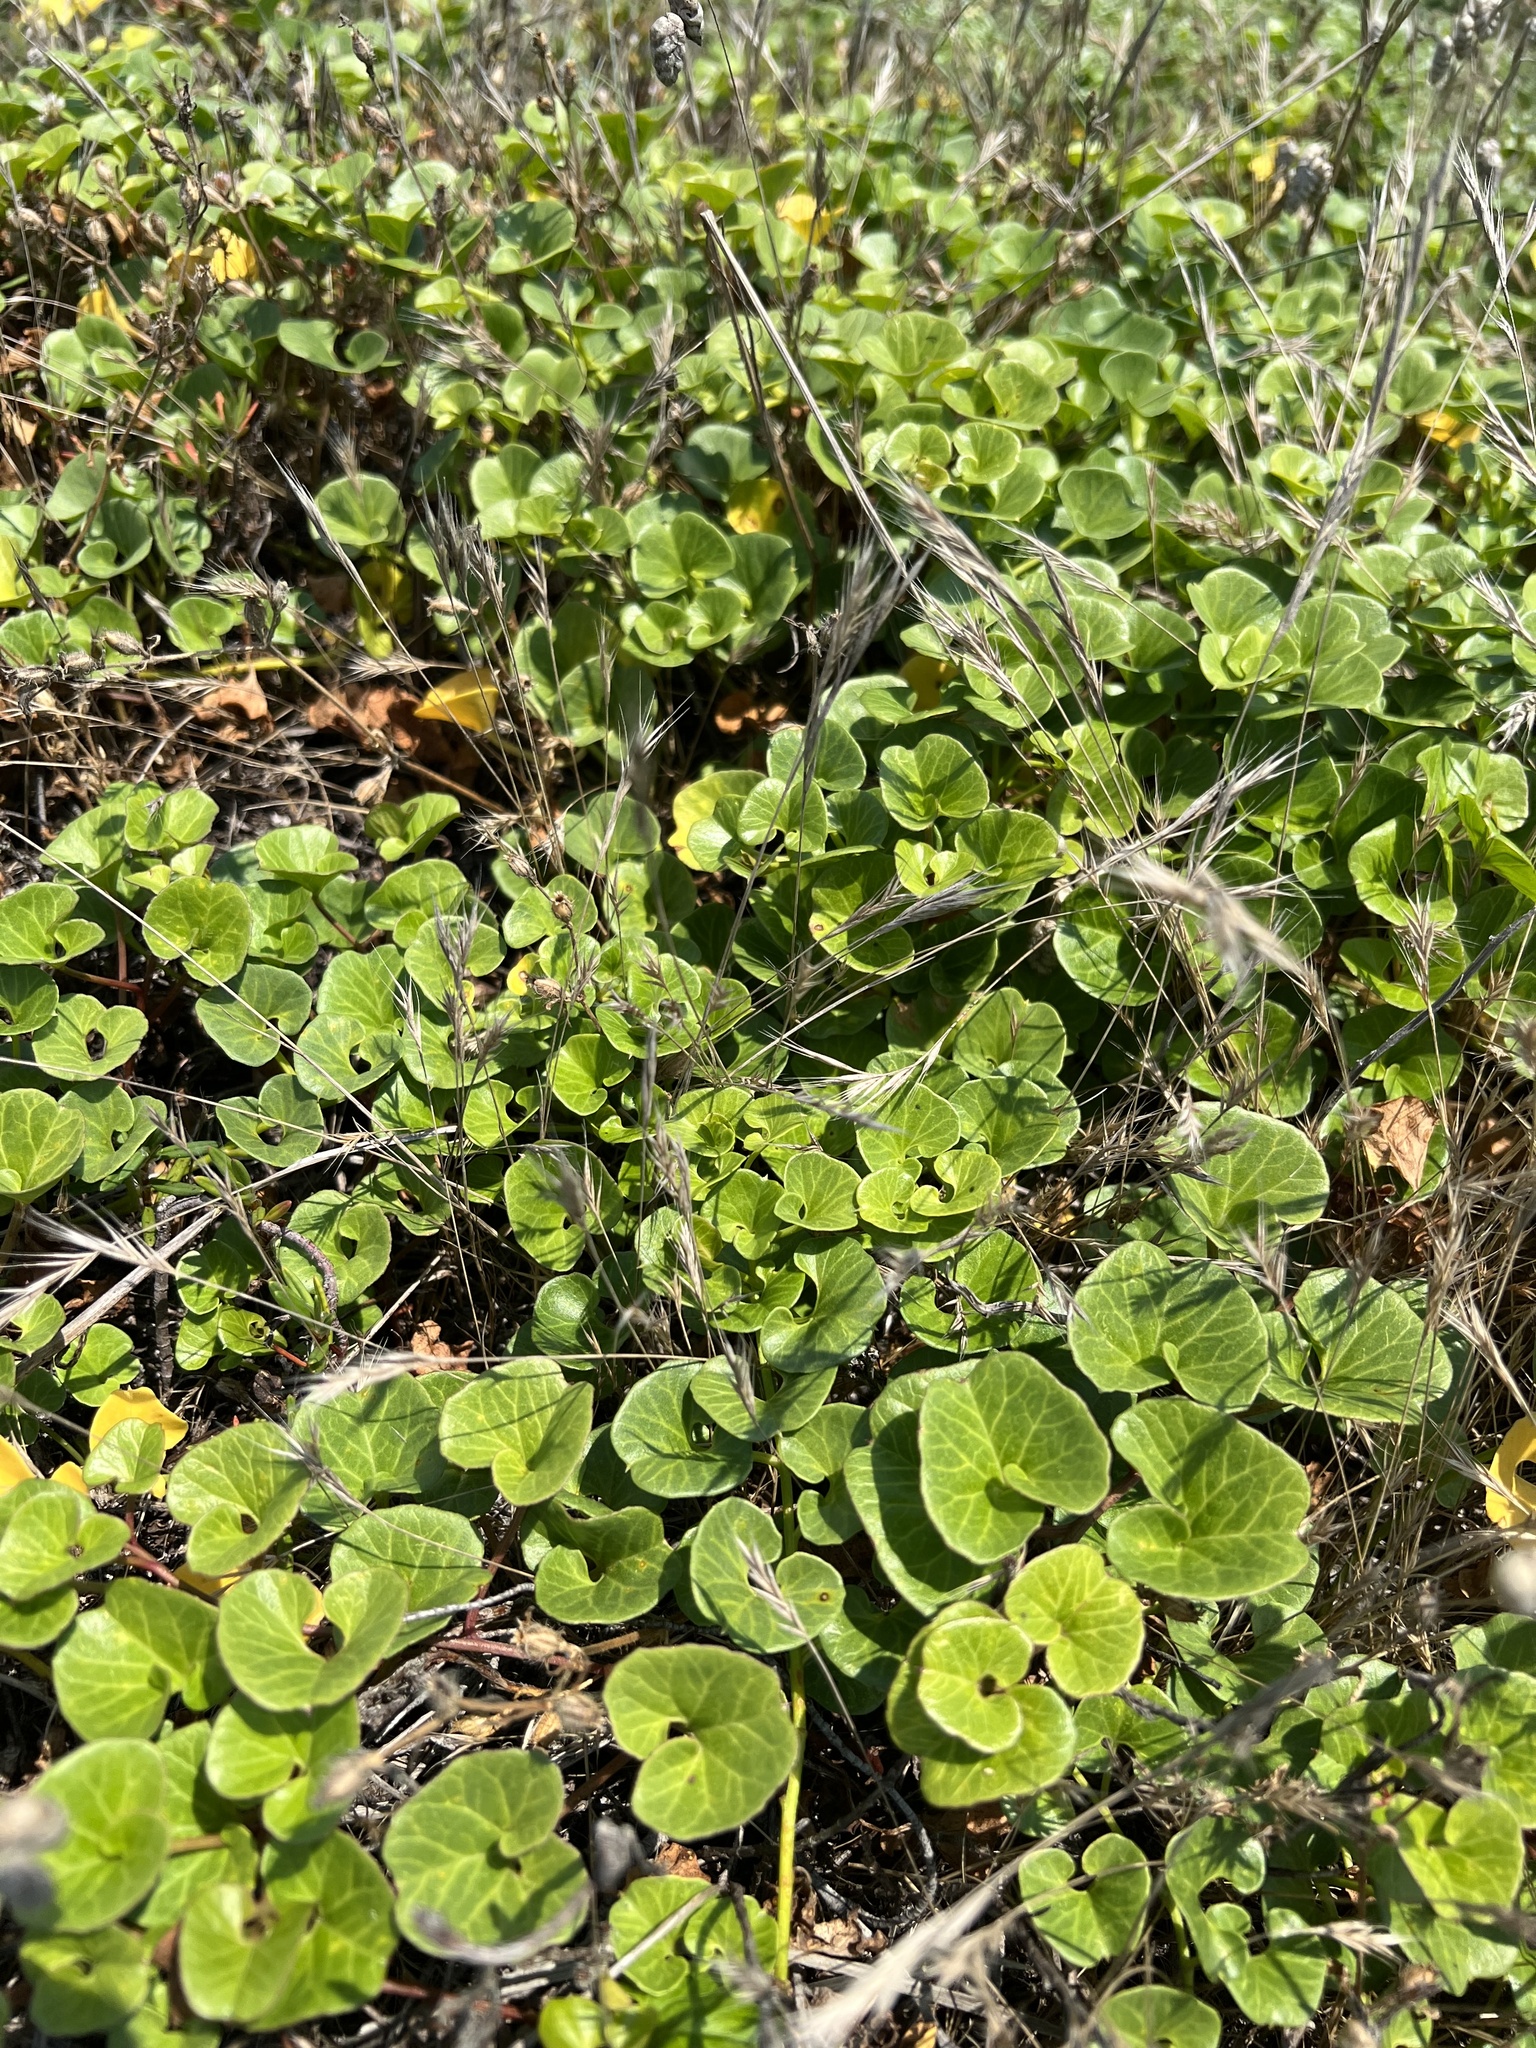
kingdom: Plantae
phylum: Tracheophyta
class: Magnoliopsida
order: Solanales
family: Convolvulaceae
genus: Calystegia
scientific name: Calystegia soldanella
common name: Sea bindweed
